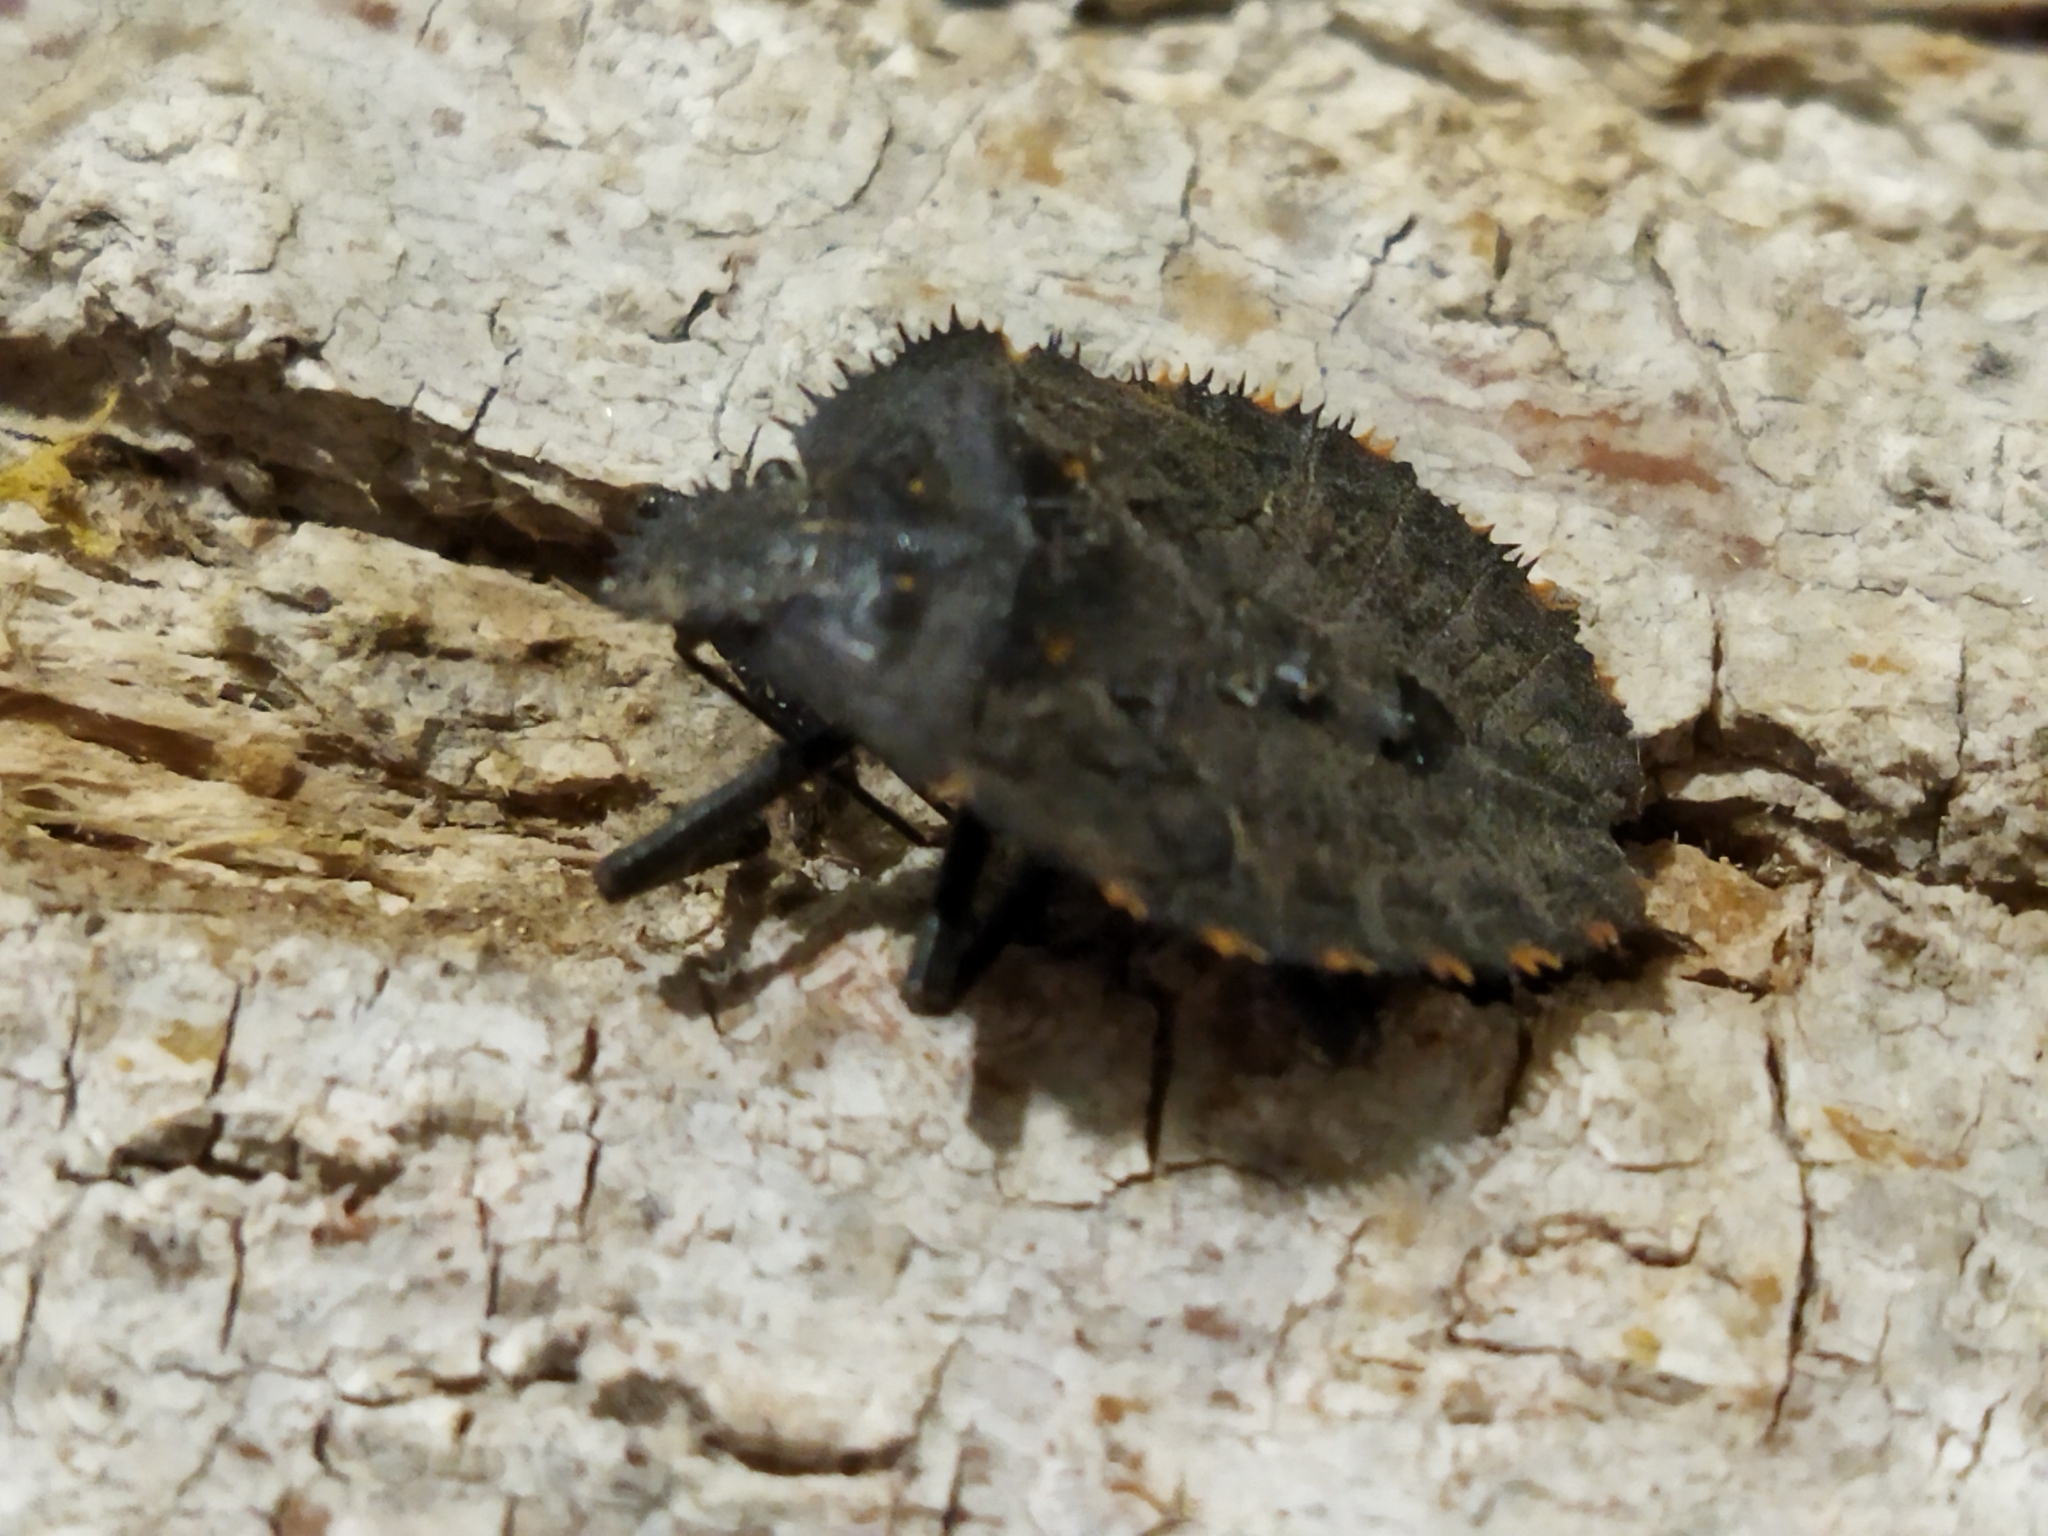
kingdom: Animalia
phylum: Arthropoda
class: Insecta
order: Hemiptera
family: Pentatomidae
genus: Mustha
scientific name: Mustha spinosula
